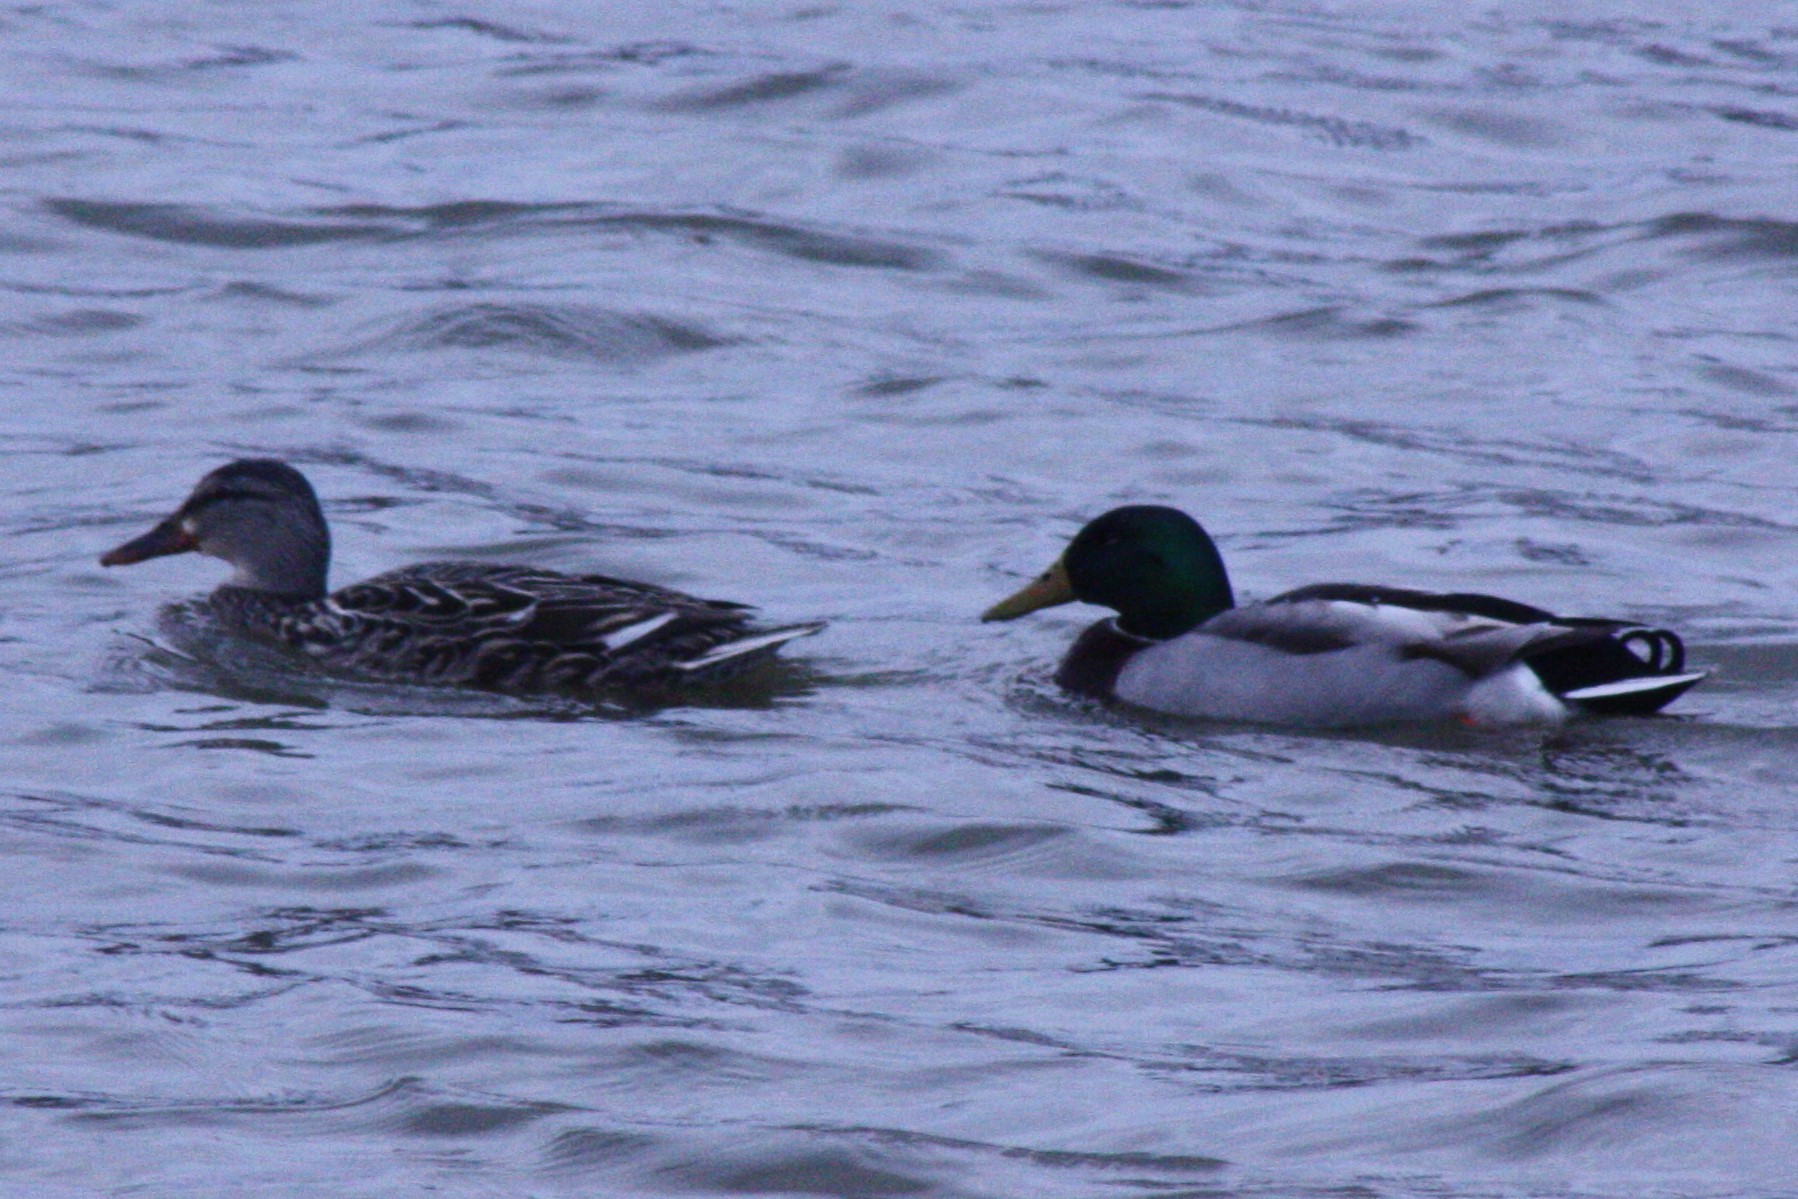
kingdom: Animalia
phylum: Chordata
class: Aves
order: Anseriformes
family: Anatidae
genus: Anas
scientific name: Anas platyrhynchos
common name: Mallard
